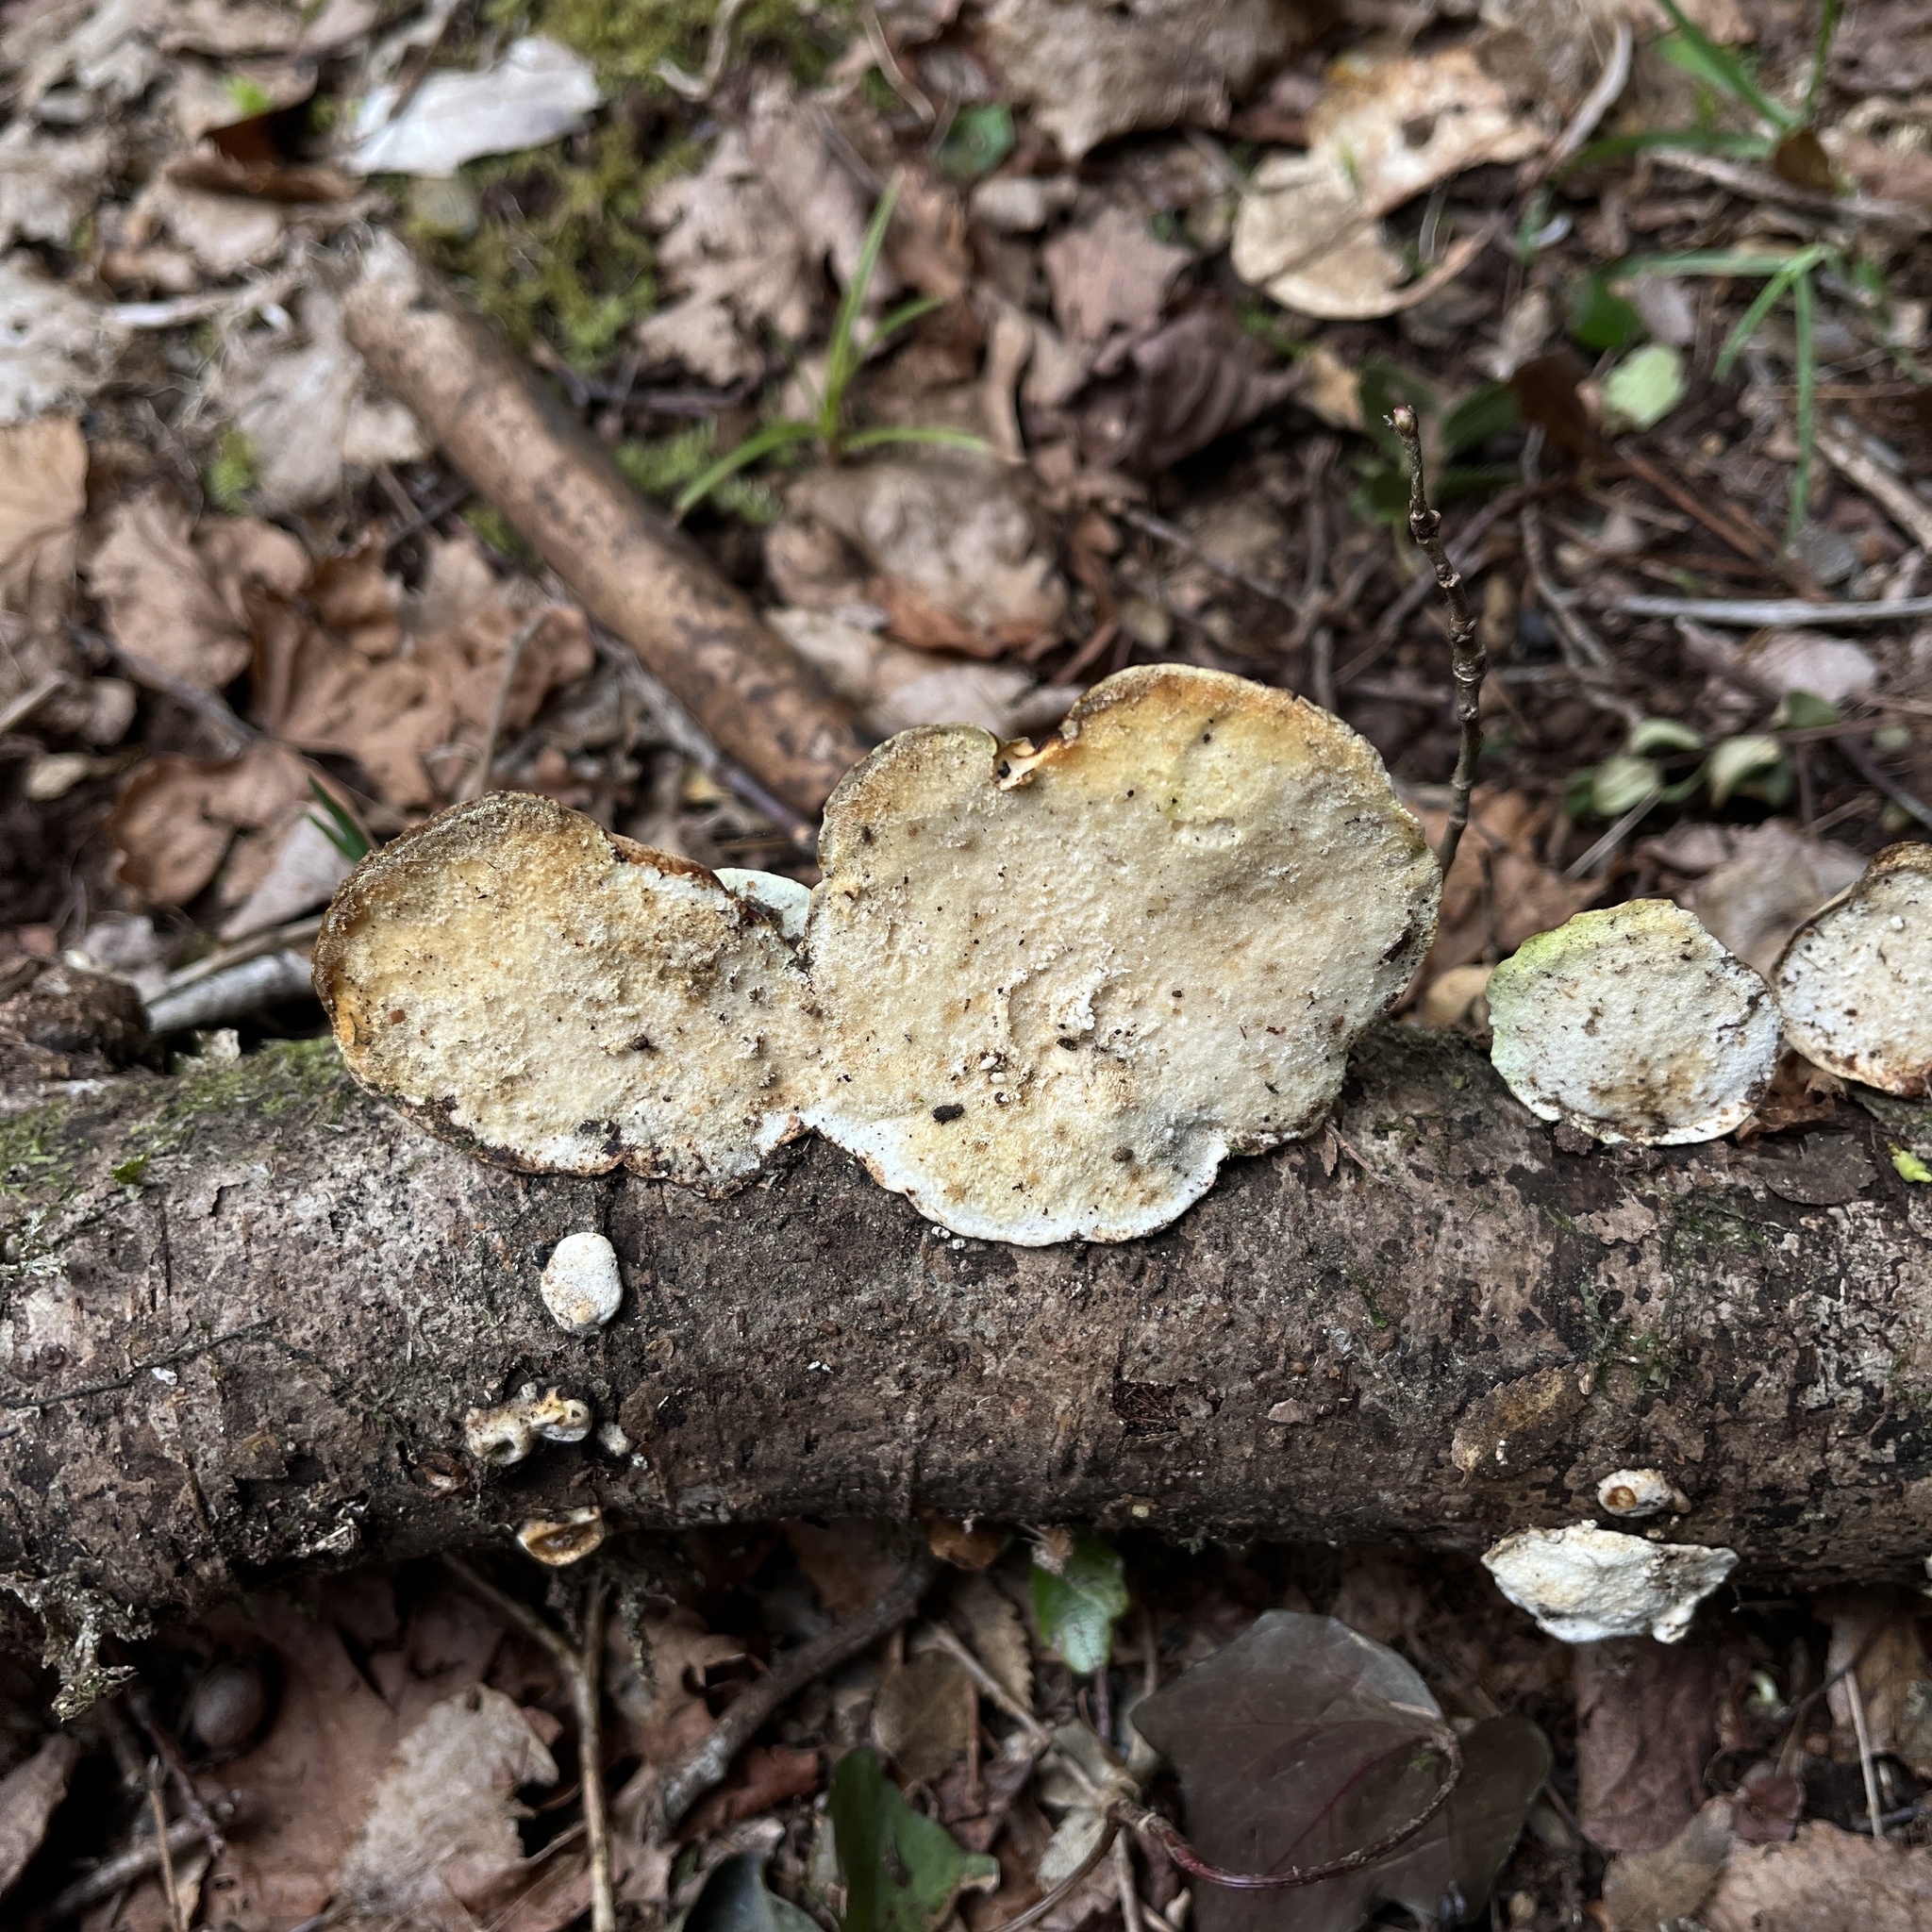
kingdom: Fungi
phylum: Basidiomycota
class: Agaricomycetes
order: Polyporales
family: Polyporaceae
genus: Trametes
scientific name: Trametes versicolor
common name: Turkeytail
